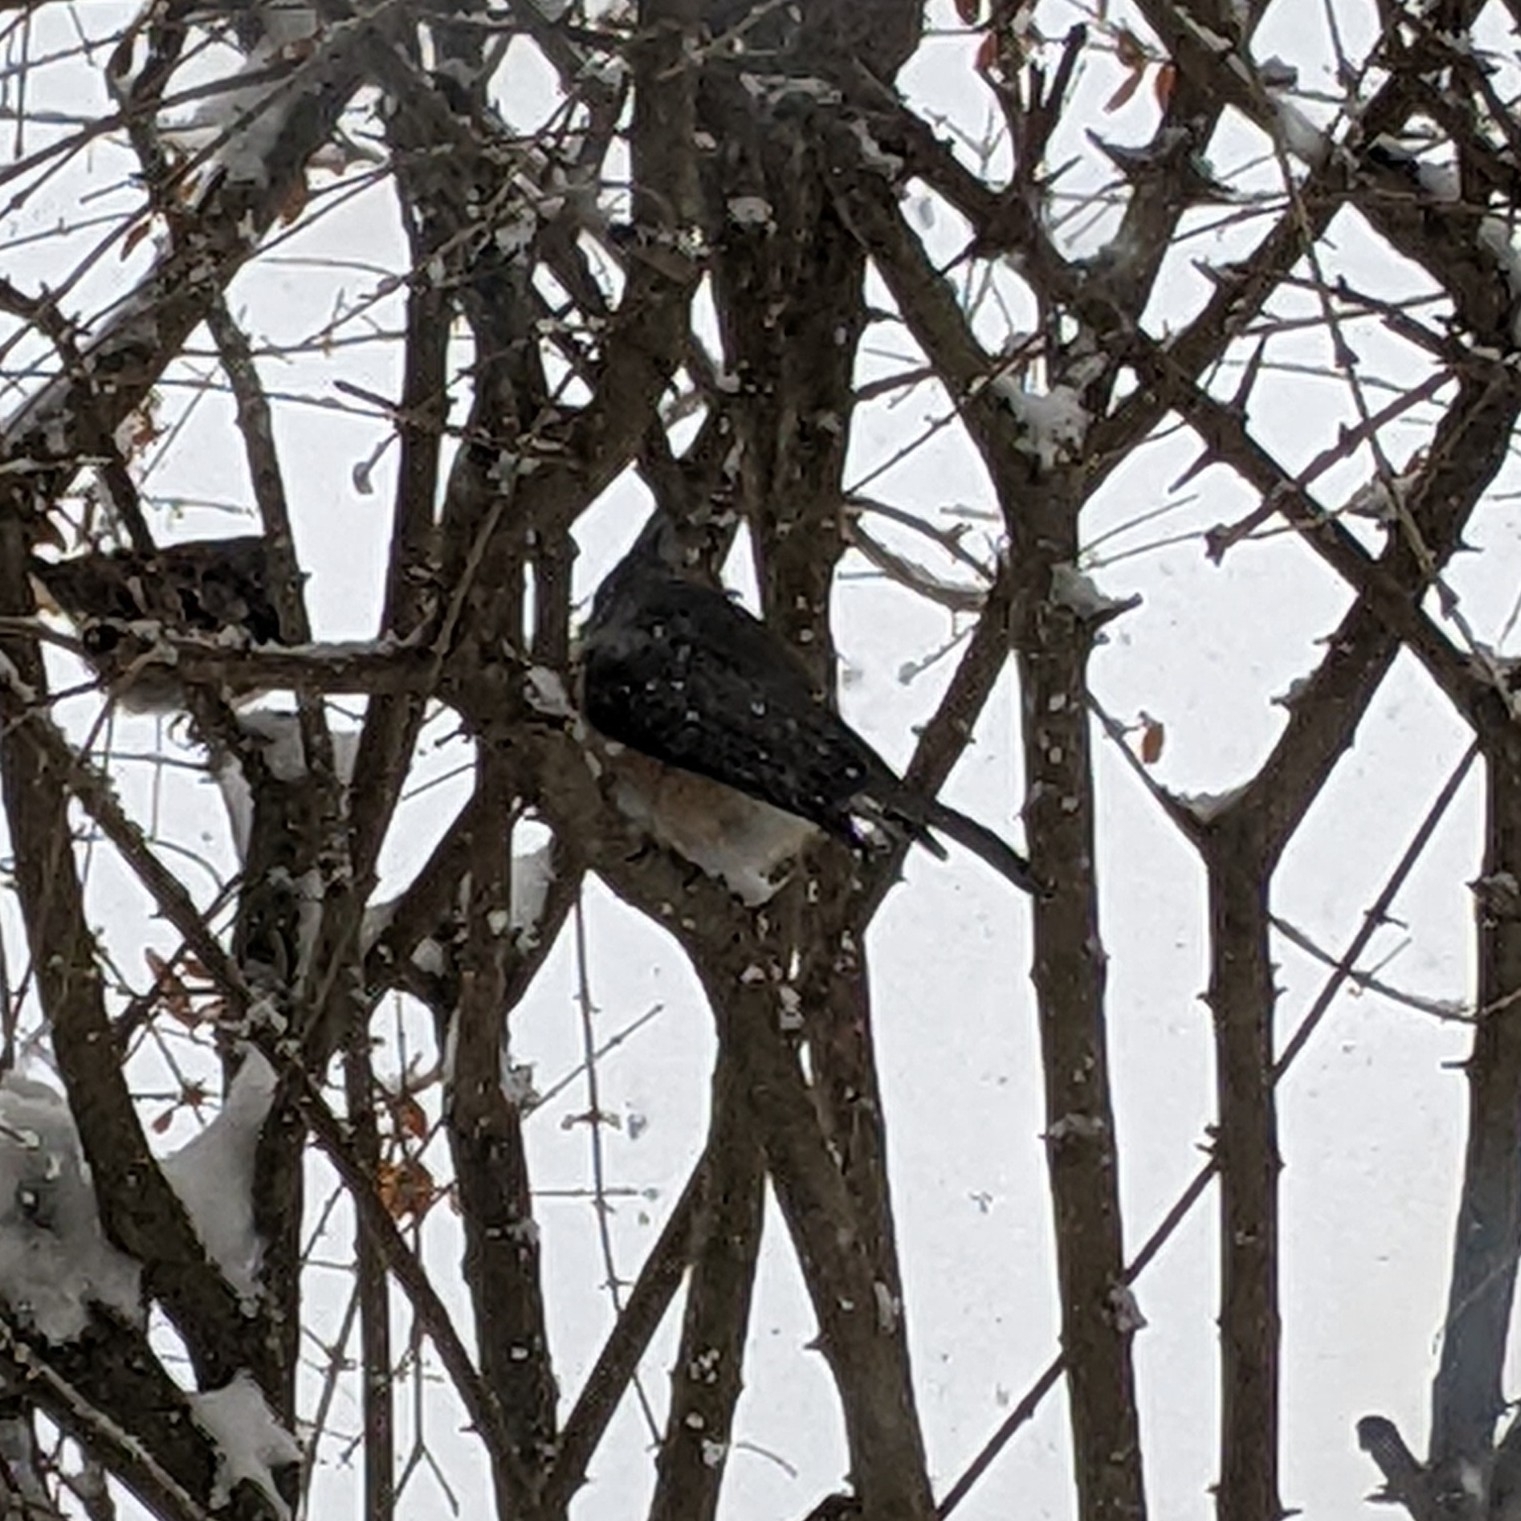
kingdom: Animalia
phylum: Chordata
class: Aves
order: Passeriformes
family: Paridae
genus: Baeolophus
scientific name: Baeolophus bicolor
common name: Tufted titmouse
